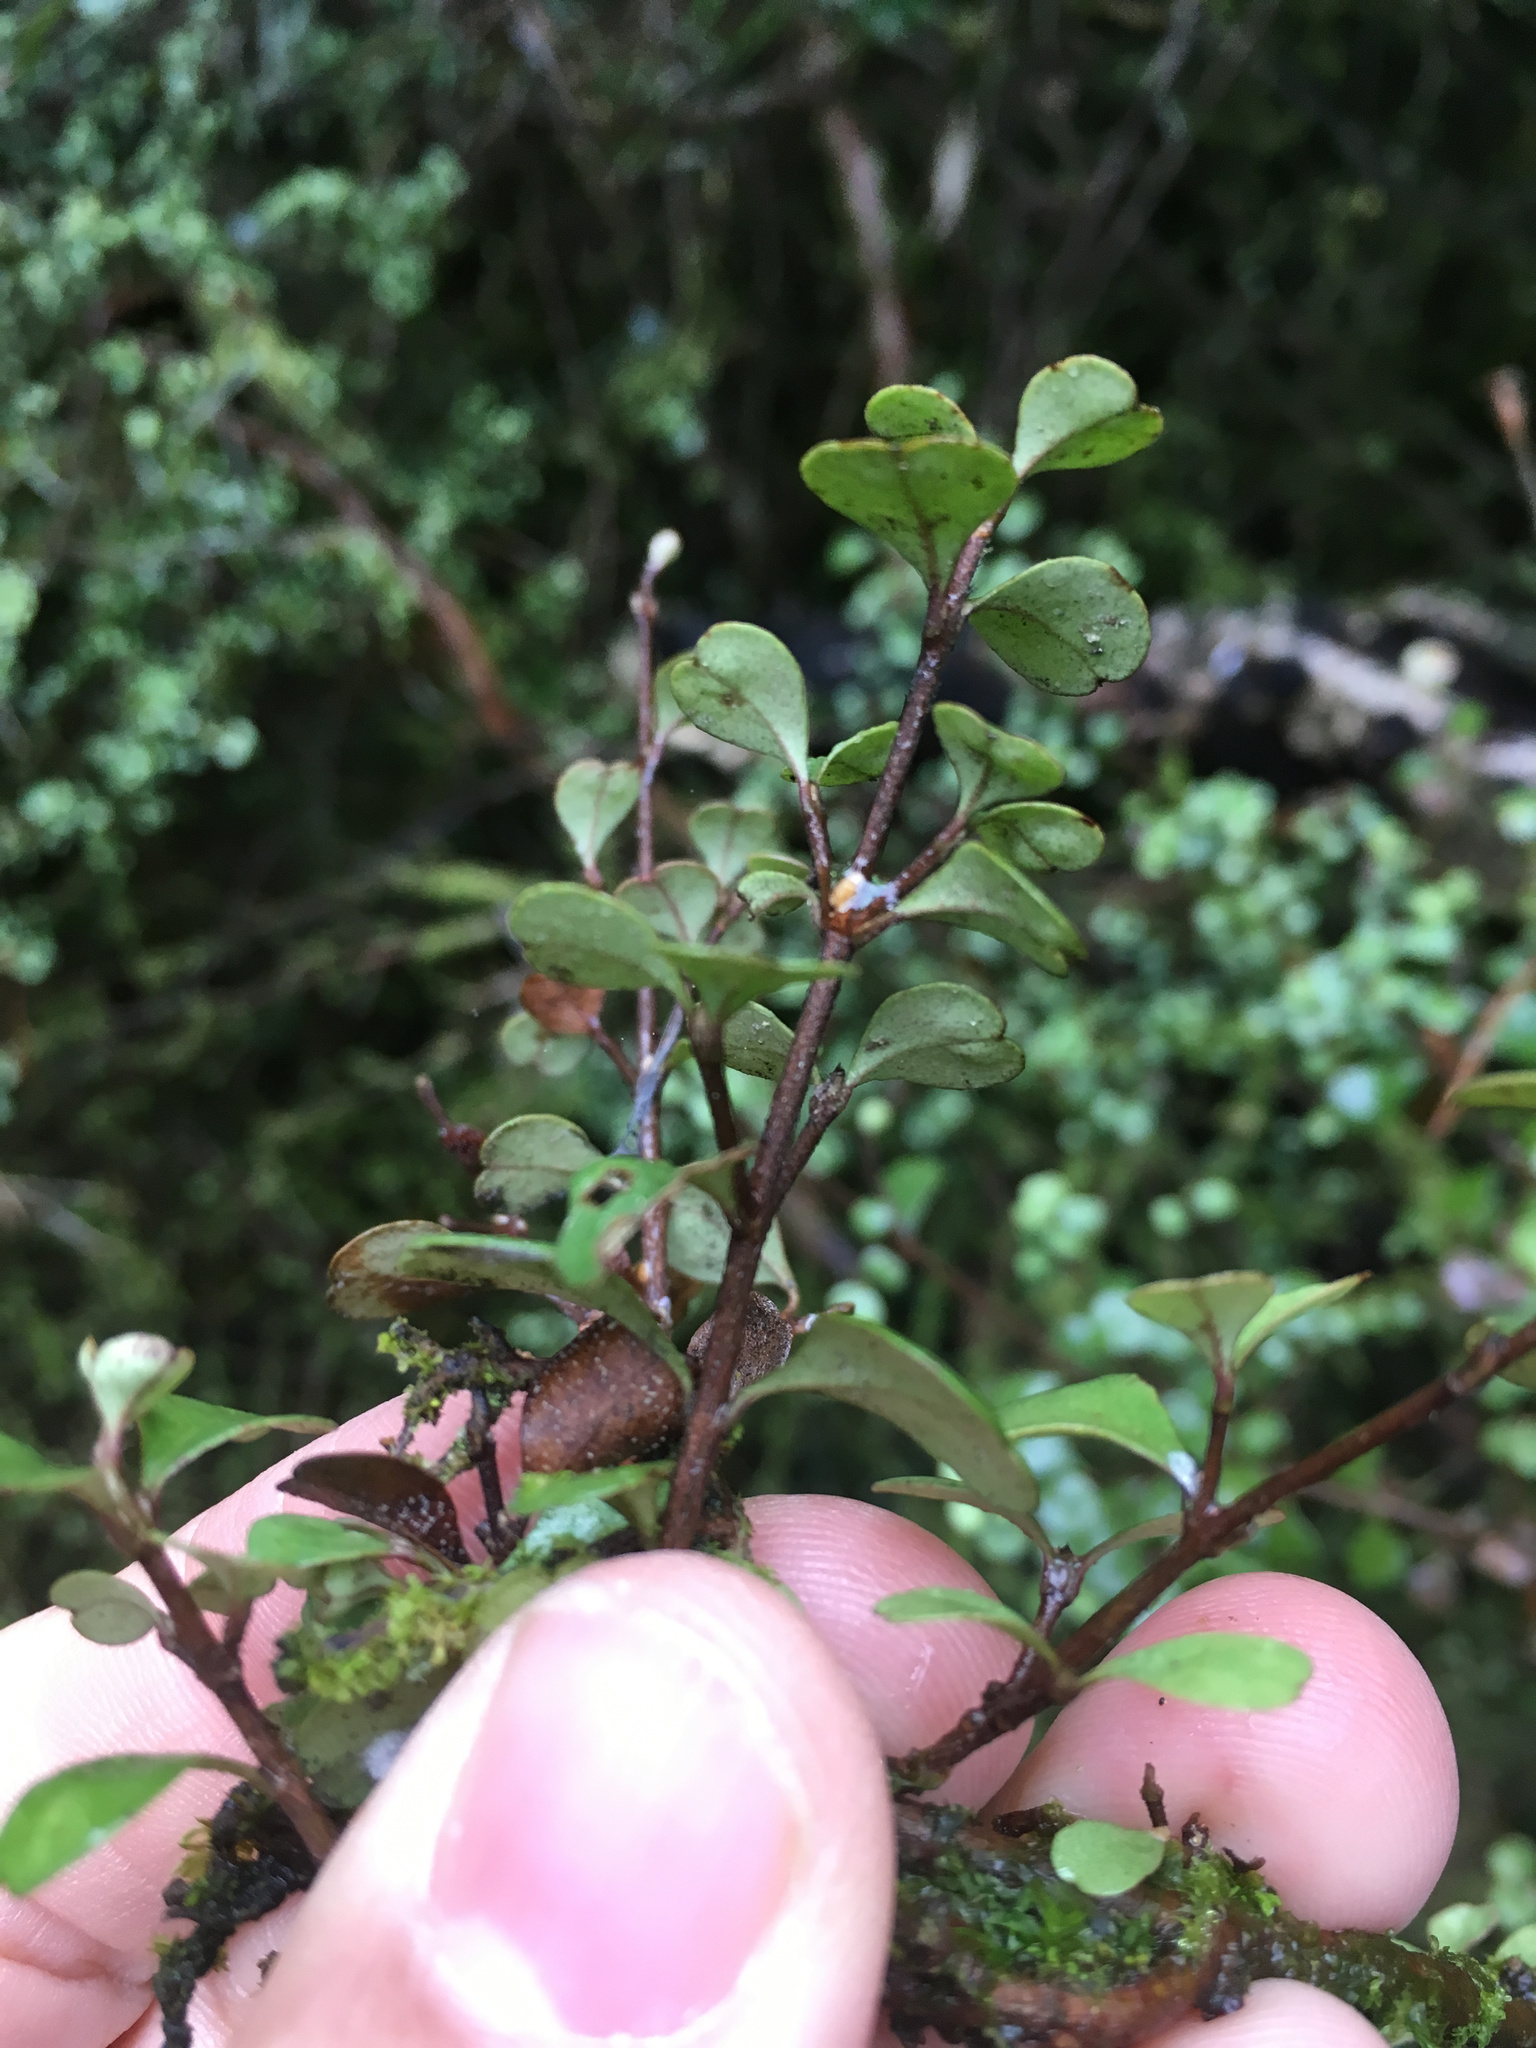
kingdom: Plantae
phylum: Tracheophyta
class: Magnoliopsida
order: Myrtales
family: Myrtaceae
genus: Lophomyrtus
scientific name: Lophomyrtus obcordata
